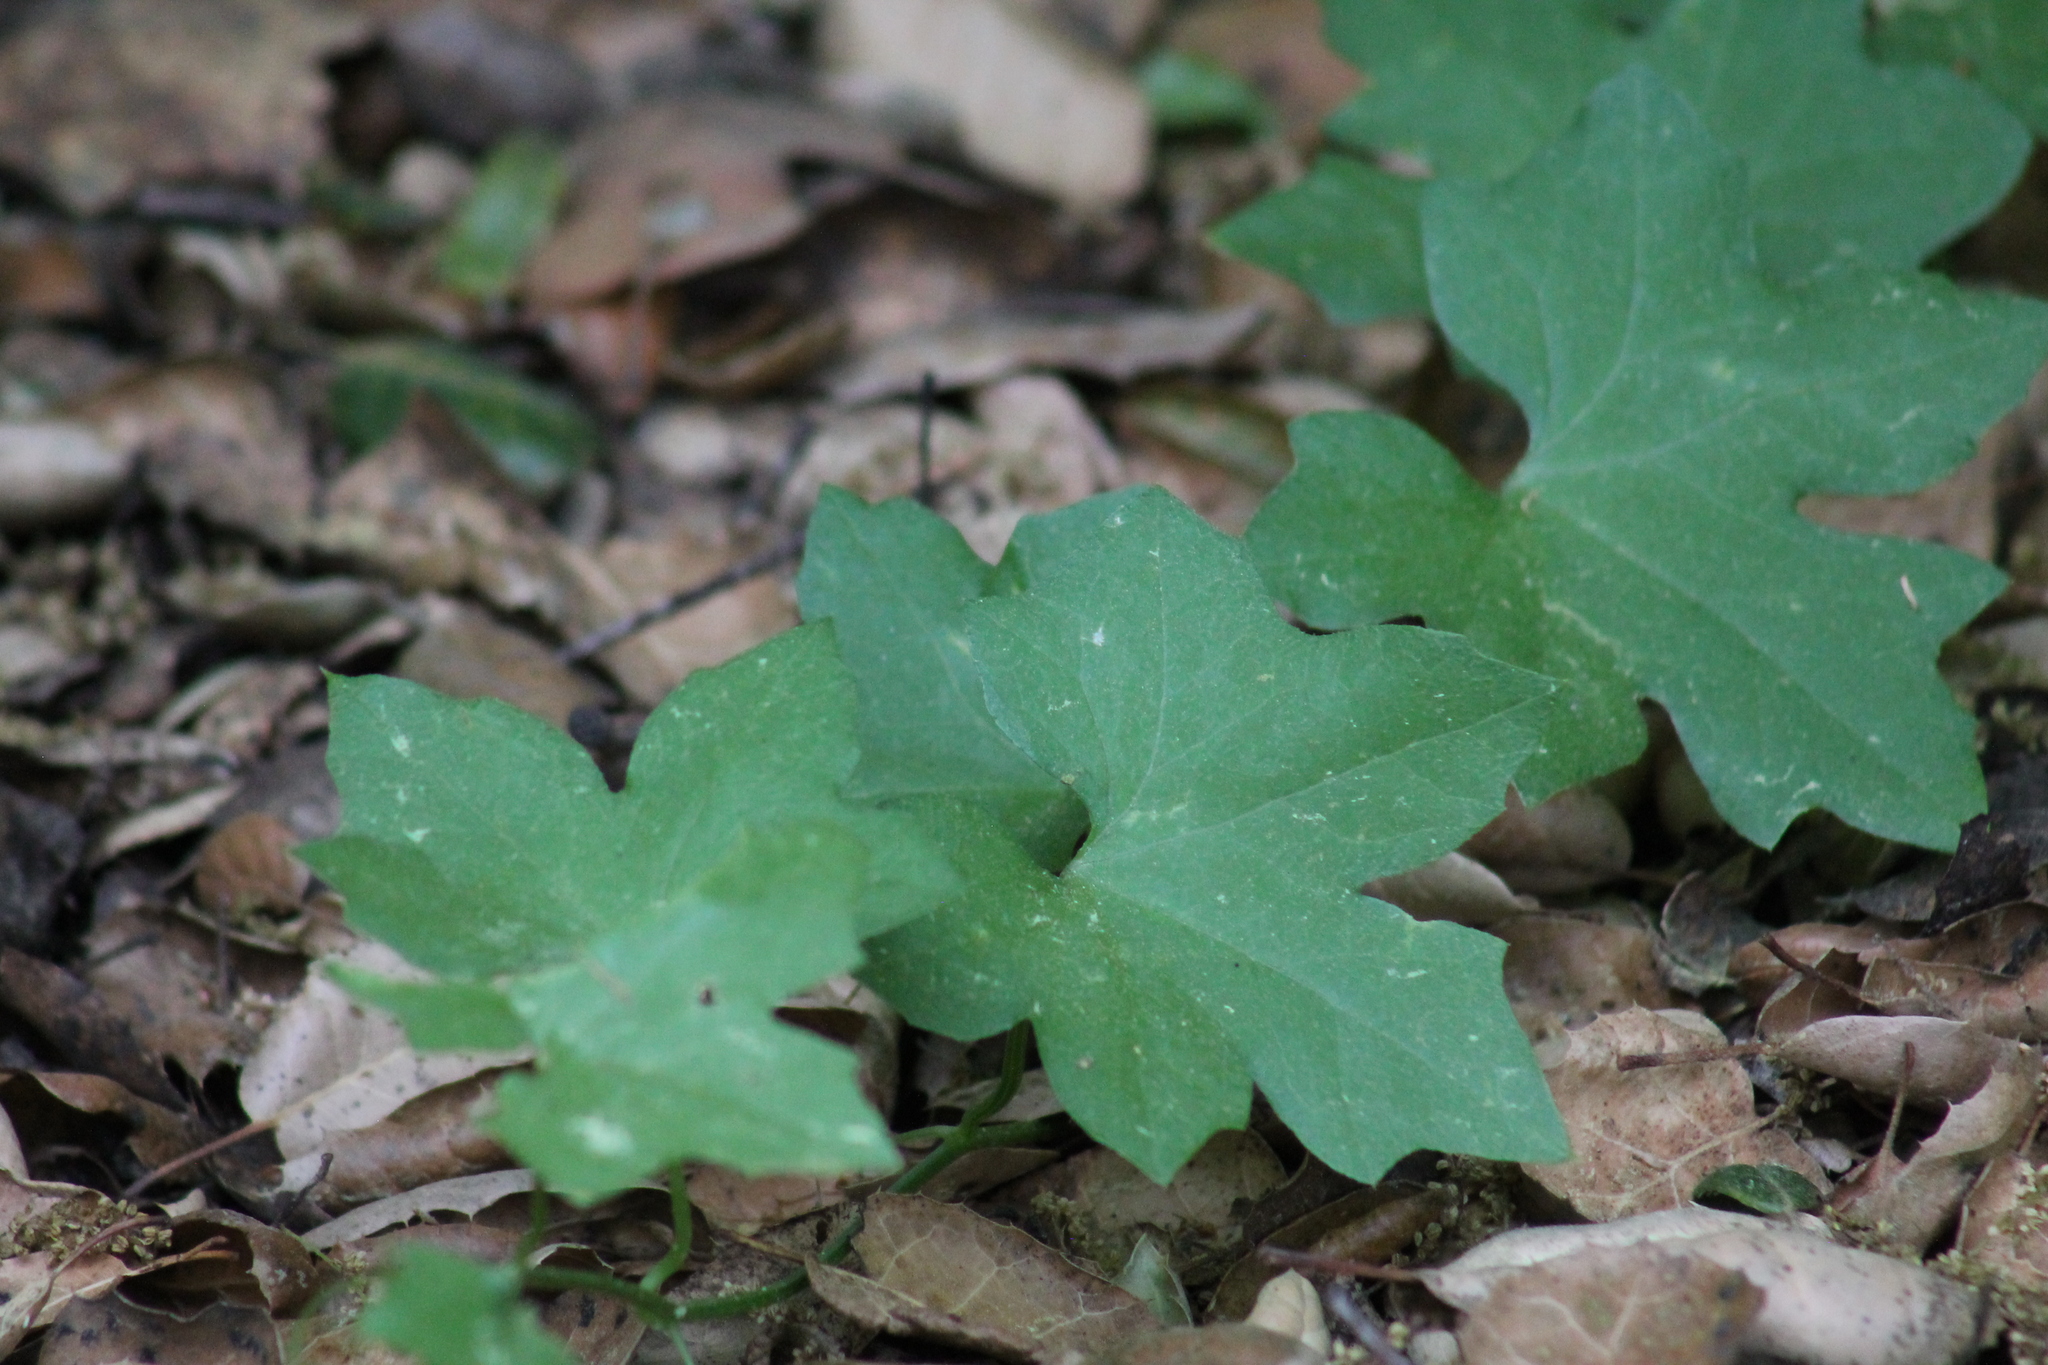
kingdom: Plantae
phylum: Tracheophyta
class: Magnoliopsida
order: Cucurbitales
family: Cucurbitaceae
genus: Marah
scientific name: Marah fabacea
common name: California manroot
